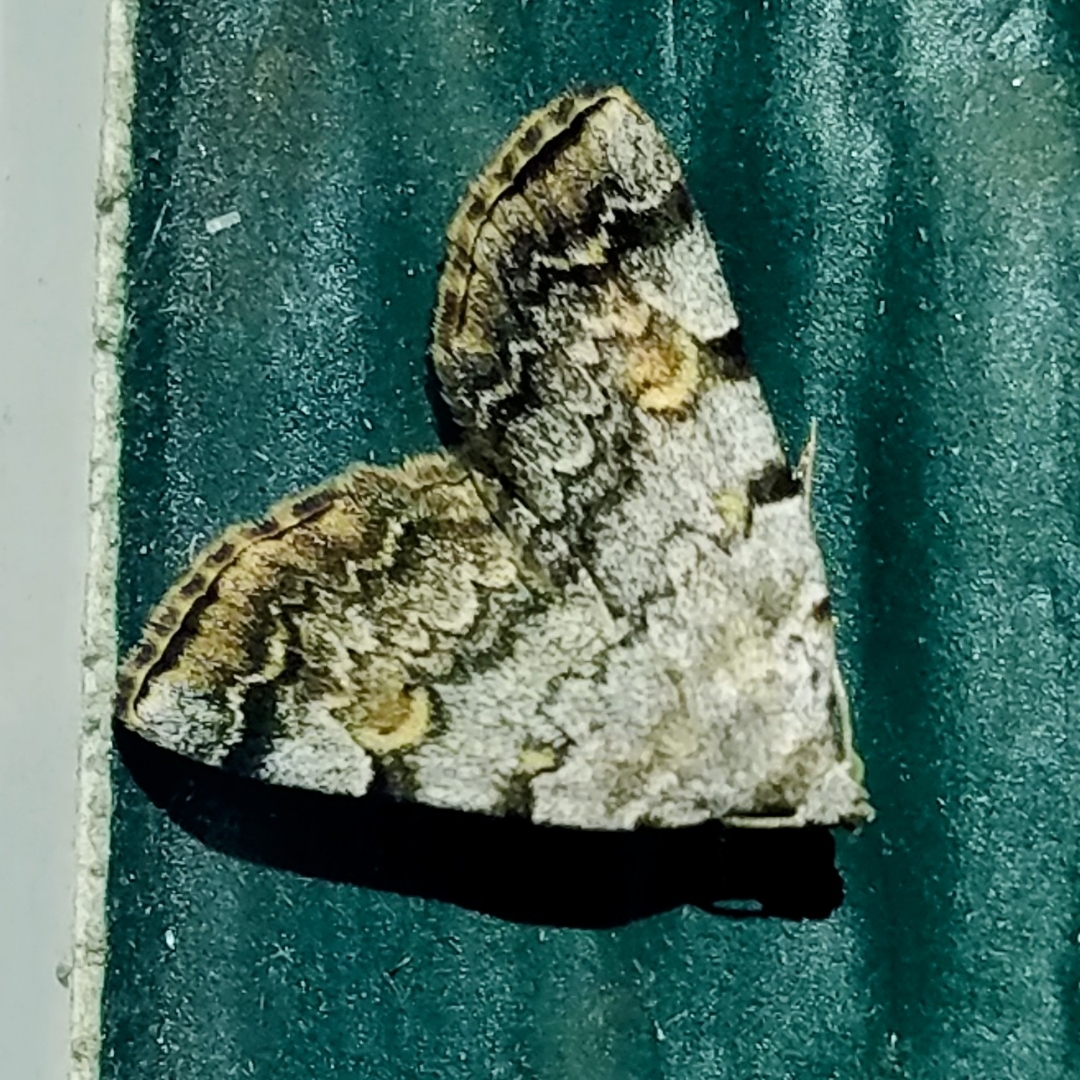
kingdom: Animalia
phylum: Arthropoda
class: Insecta
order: Lepidoptera
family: Erebidae
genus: Idia
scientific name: Idia americalis
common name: American idia moth
